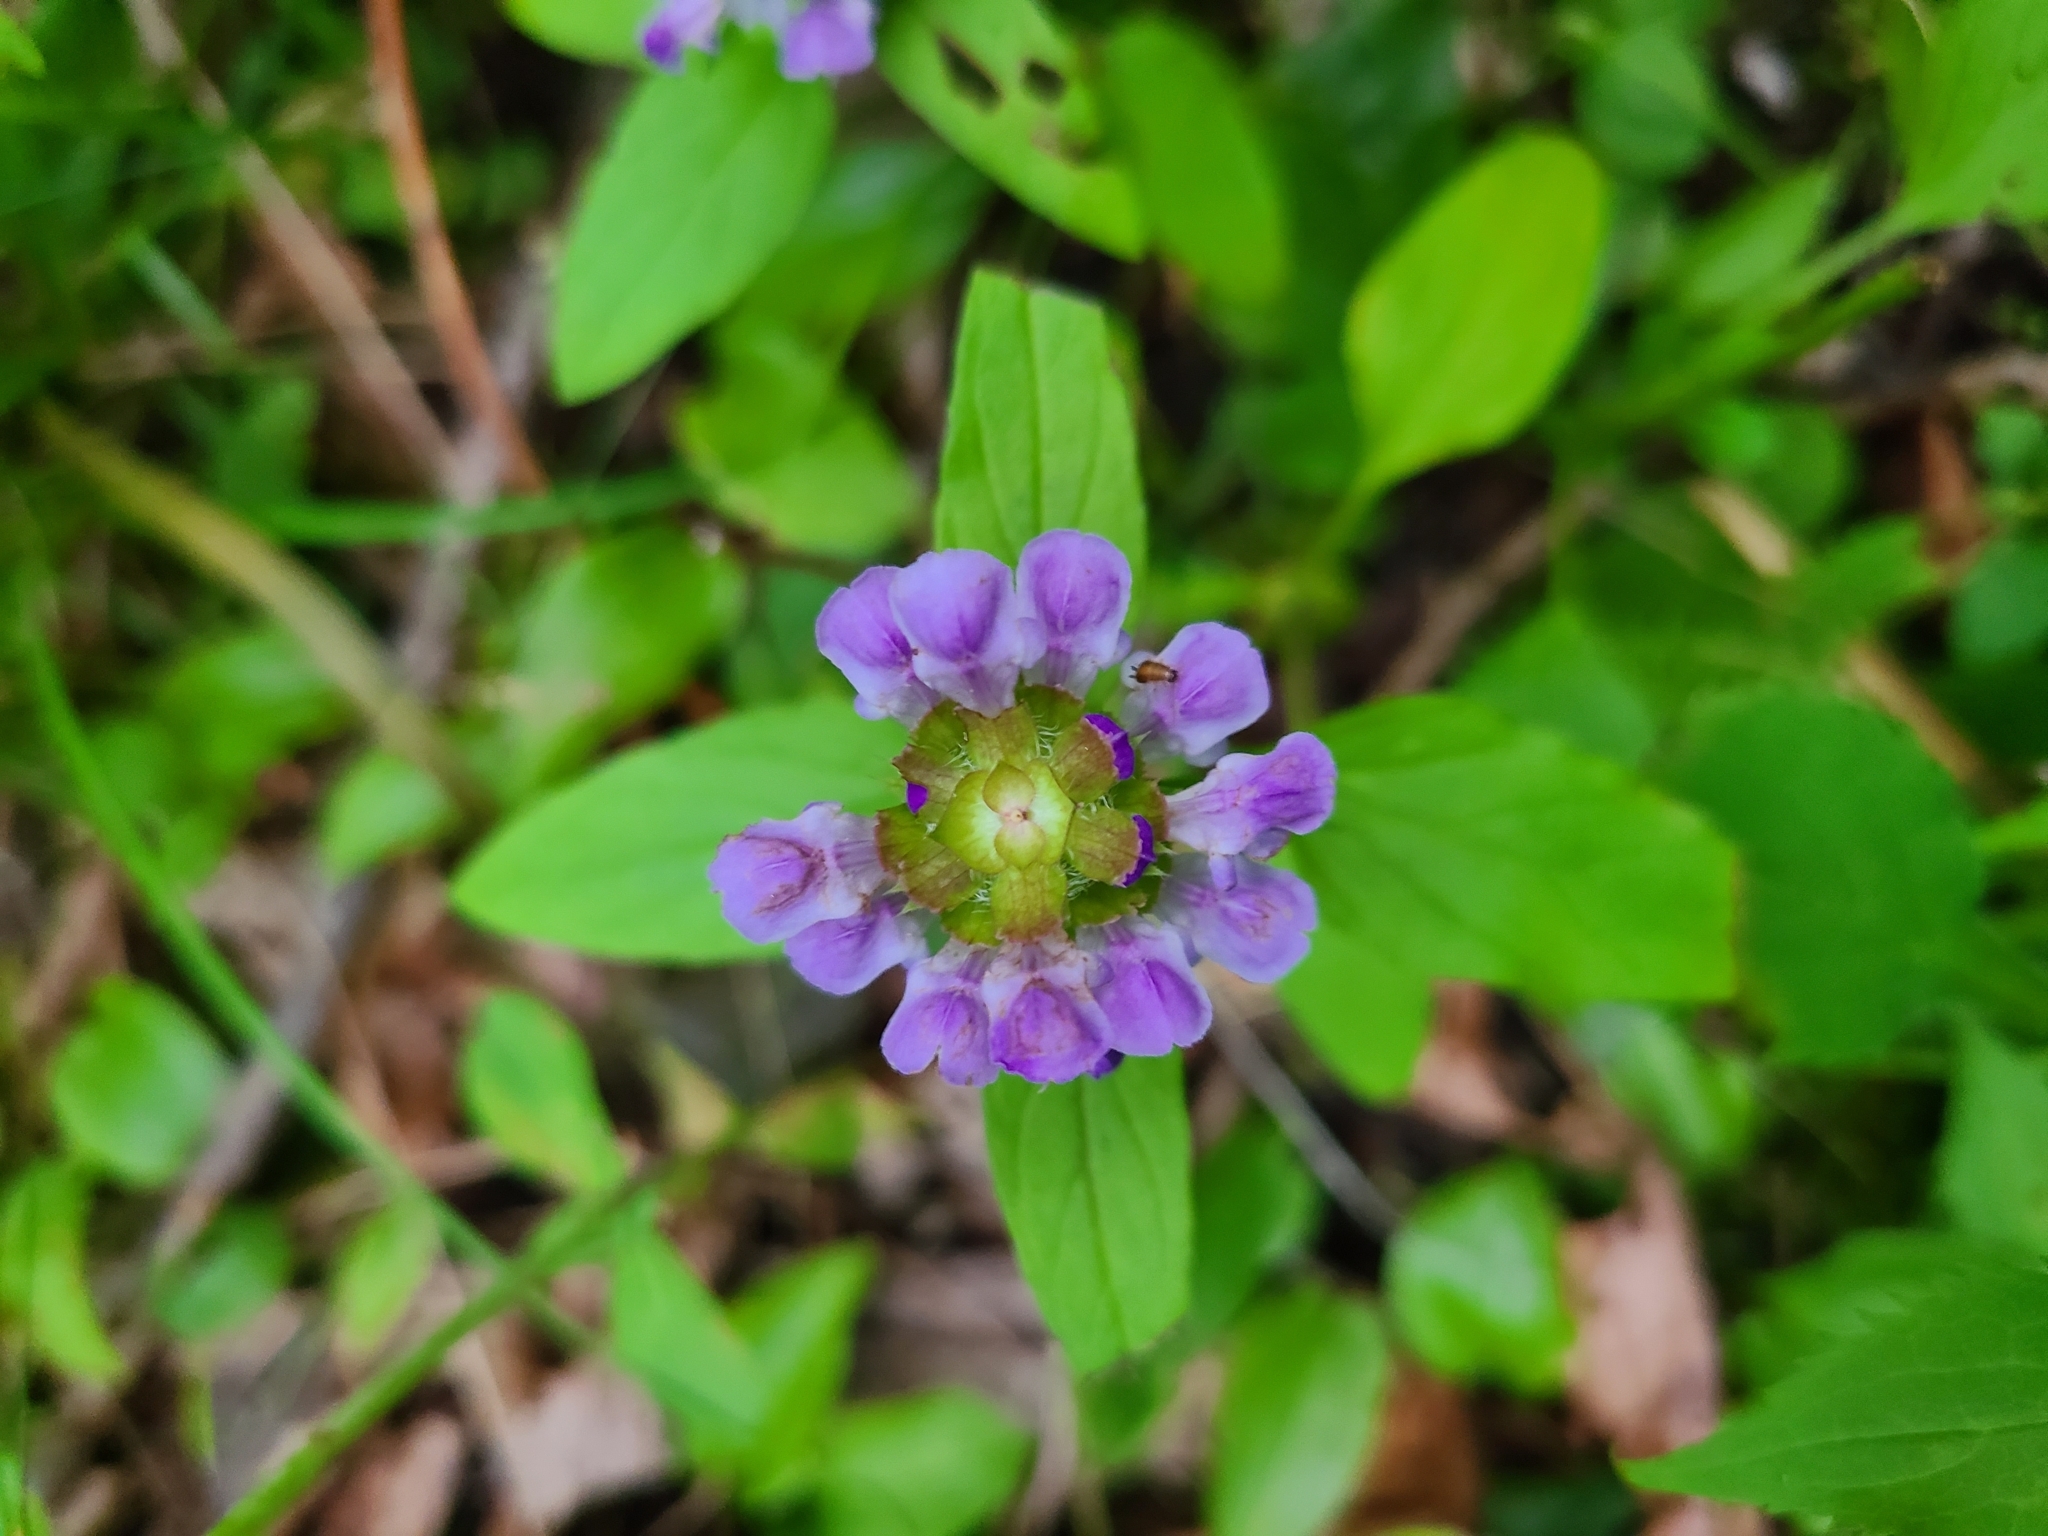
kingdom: Plantae
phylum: Tracheophyta
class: Magnoliopsida
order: Lamiales
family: Lamiaceae
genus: Prunella
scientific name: Prunella vulgaris
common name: Heal-all
